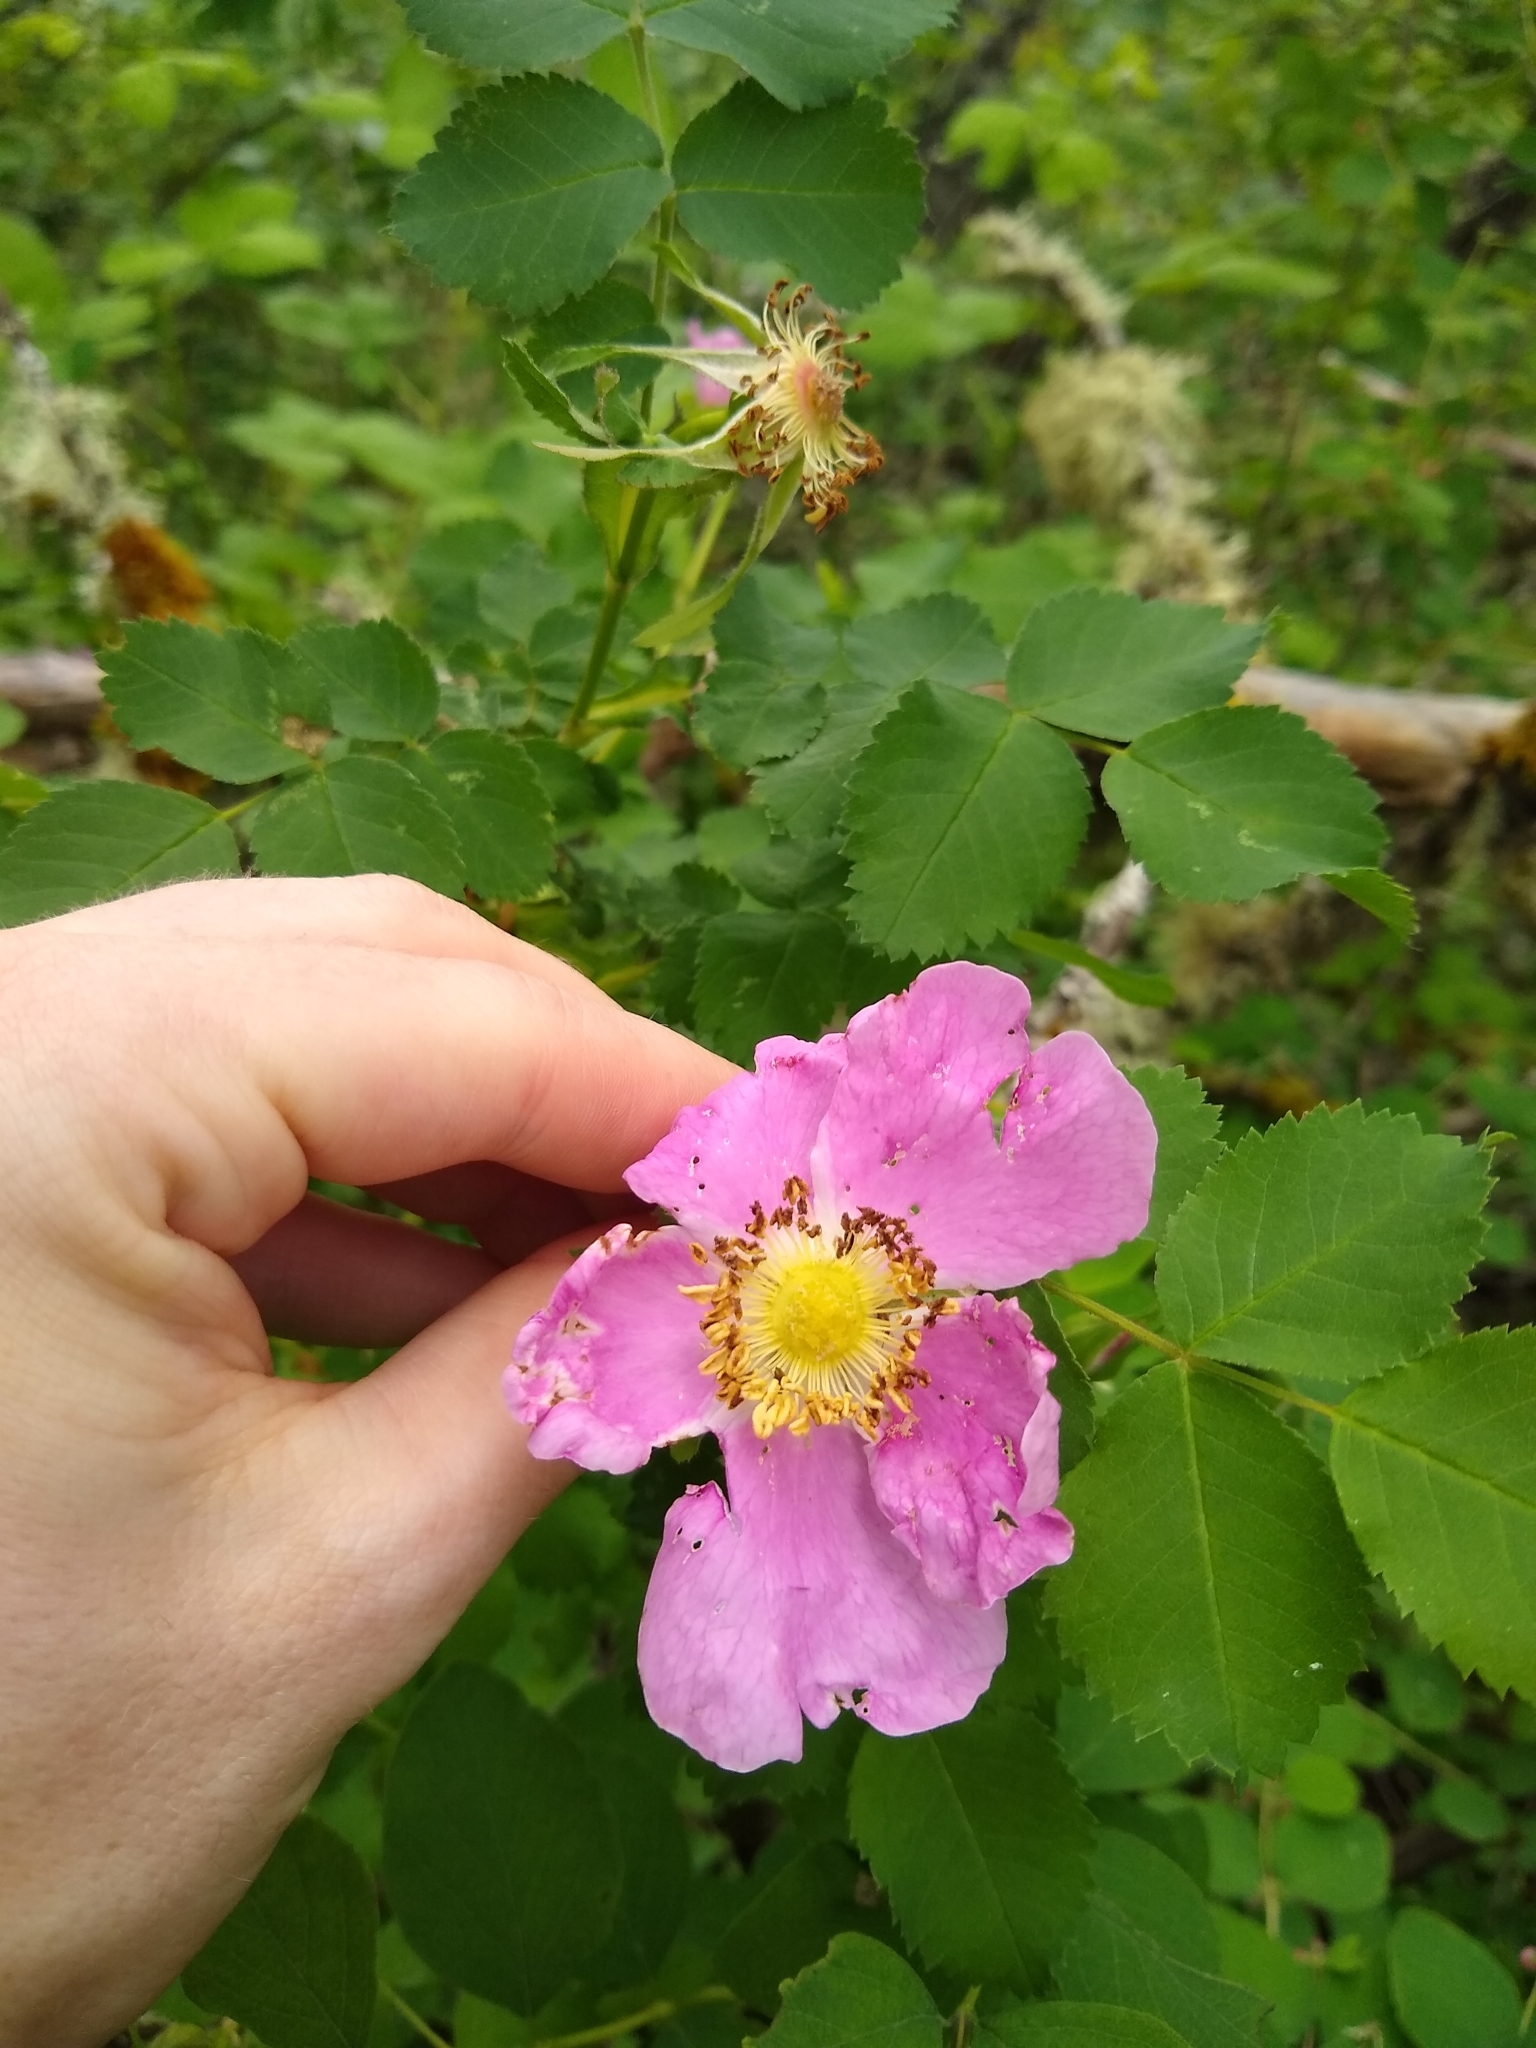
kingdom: Plantae
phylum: Tracheophyta
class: Magnoliopsida
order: Rosales
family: Rosaceae
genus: Rosa
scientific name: Rosa nutkana
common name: Nootka rose
